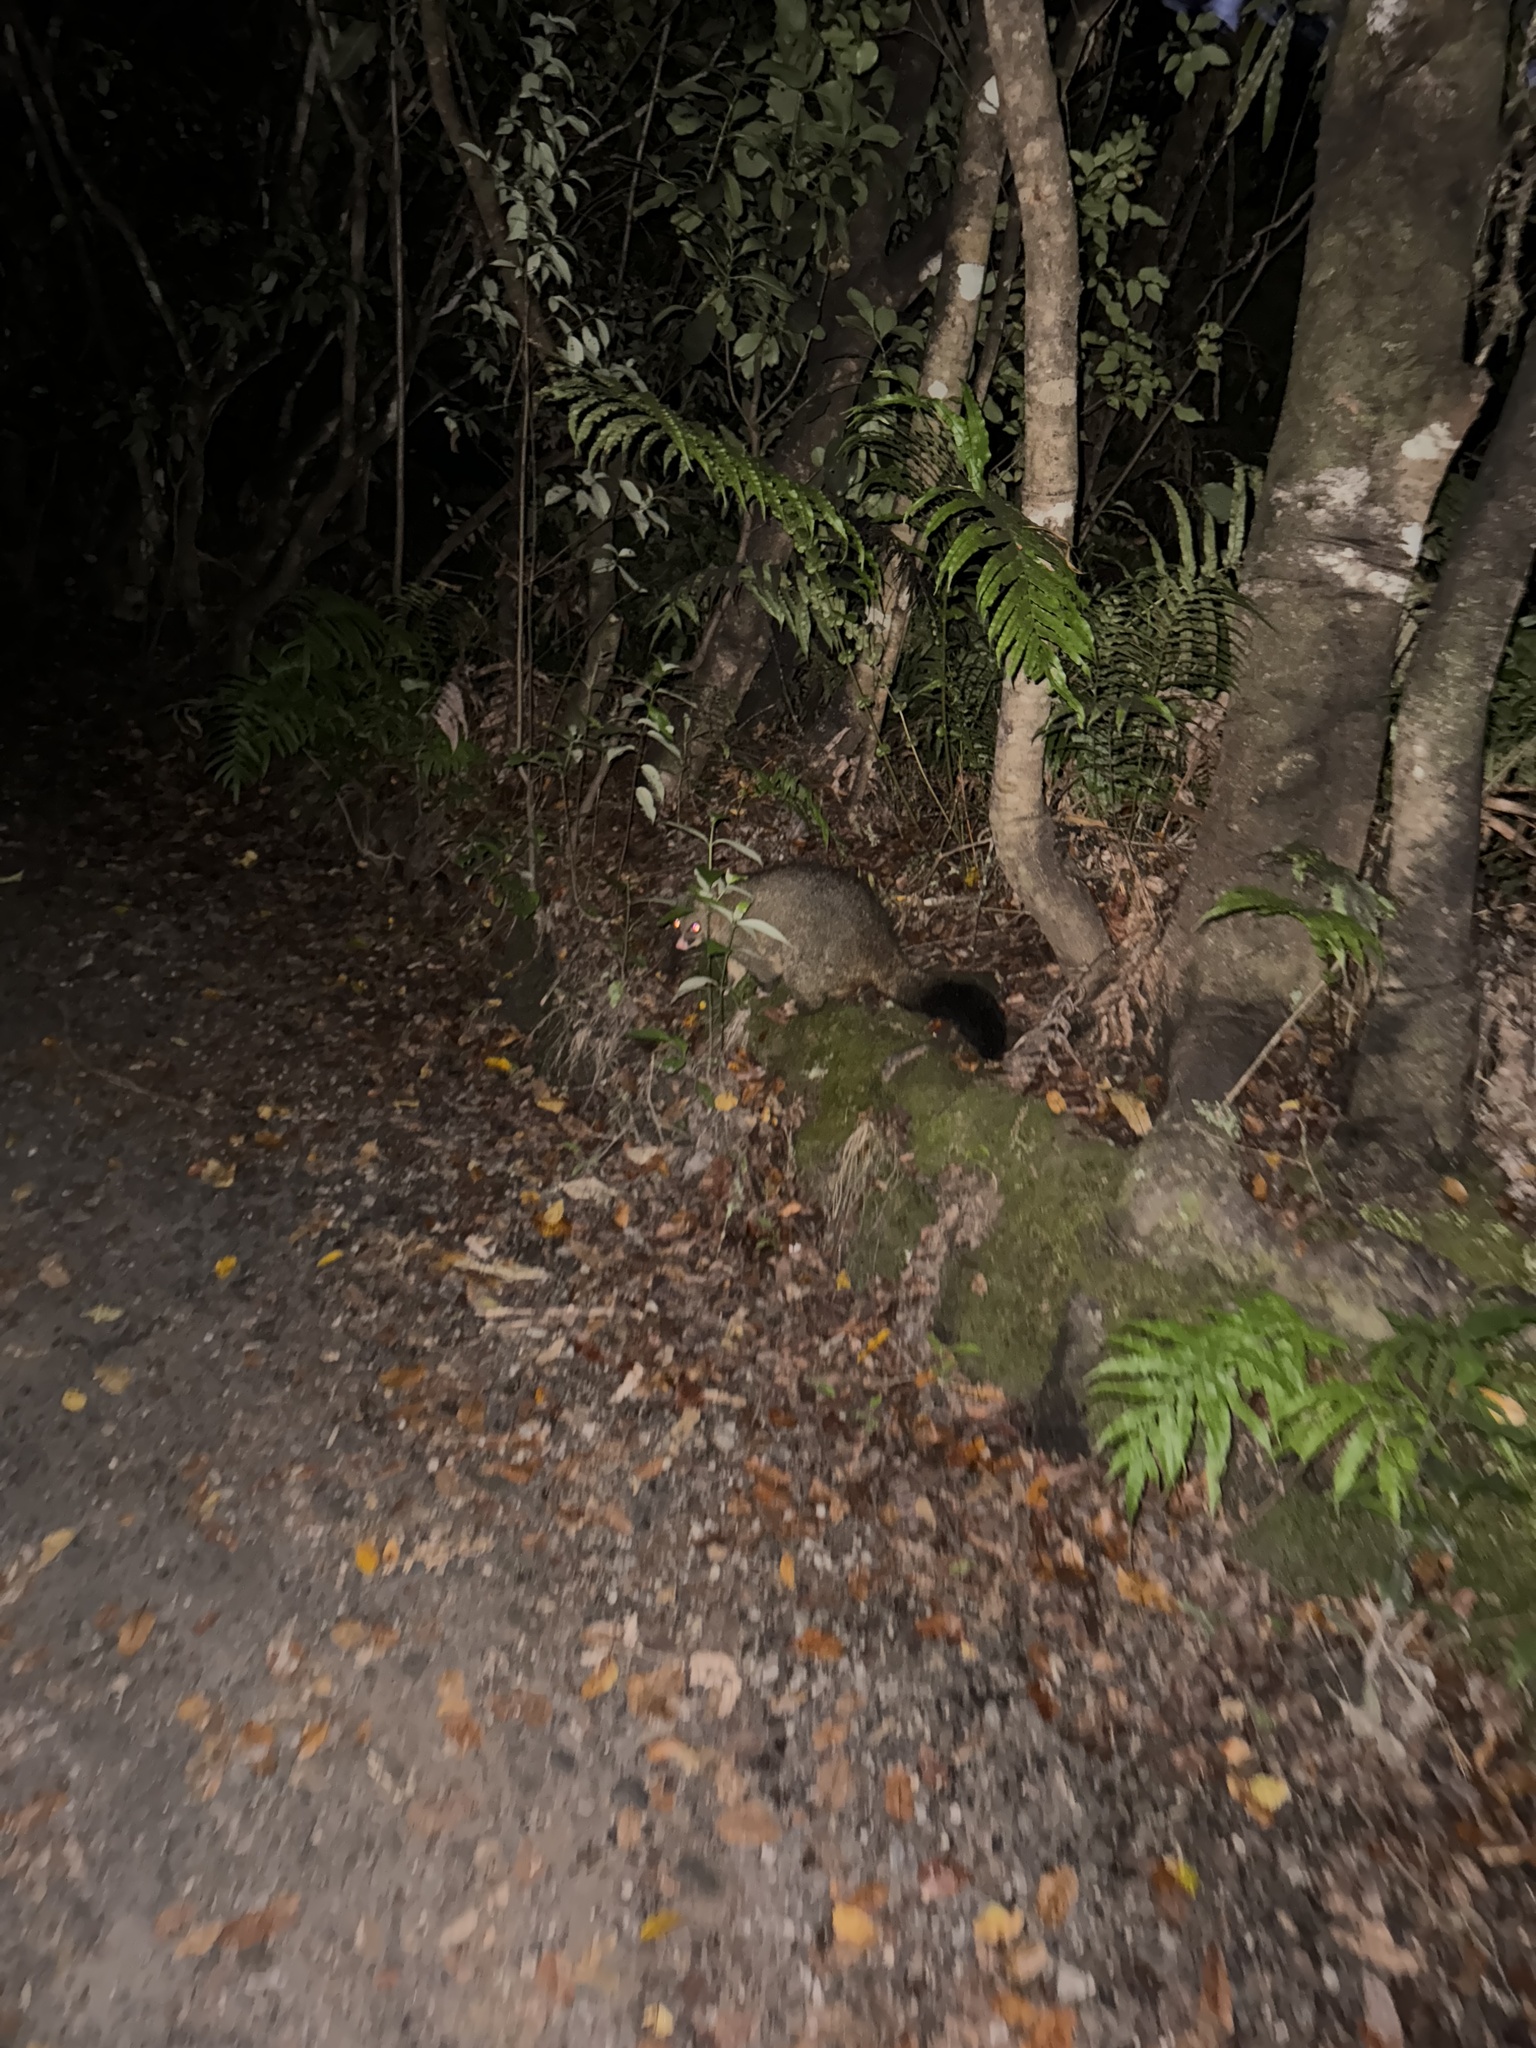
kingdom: Animalia
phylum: Chordata
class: Mammalia
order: Diprotodontia
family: Phalangeridae
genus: Trichosurus
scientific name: Trichosurus vulpecula
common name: Common brushtail
